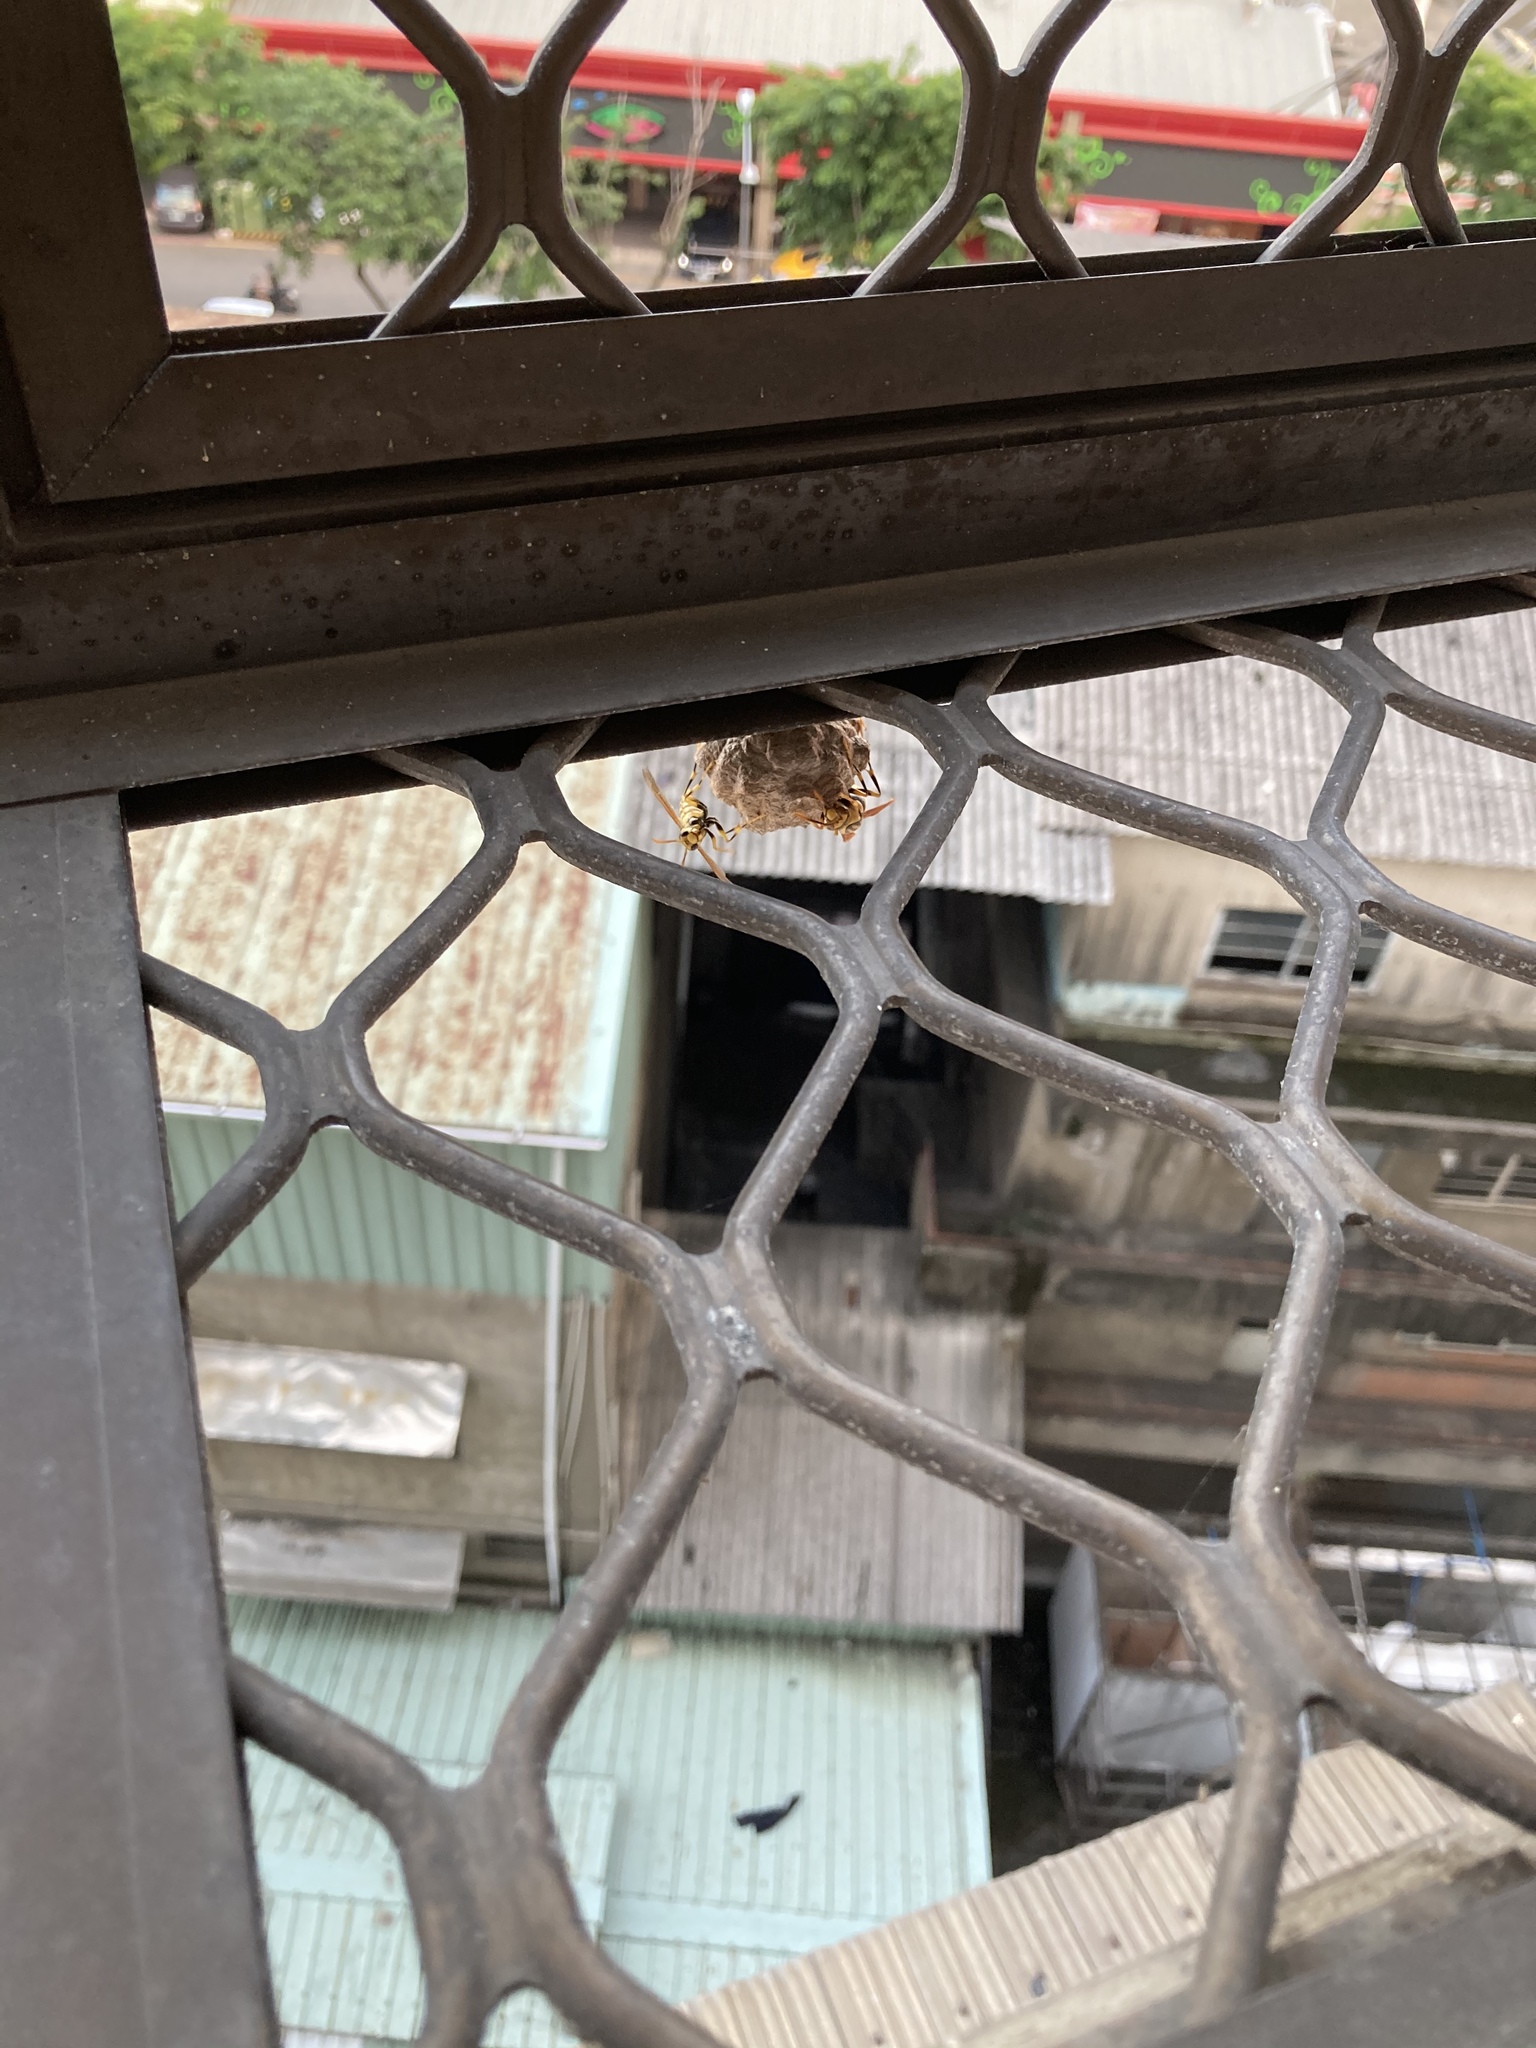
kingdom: Animalia
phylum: Arthropoda
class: Insecta
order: Hymenoptera
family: Eumenidae
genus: Polistes
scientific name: Polistes rothneyi
